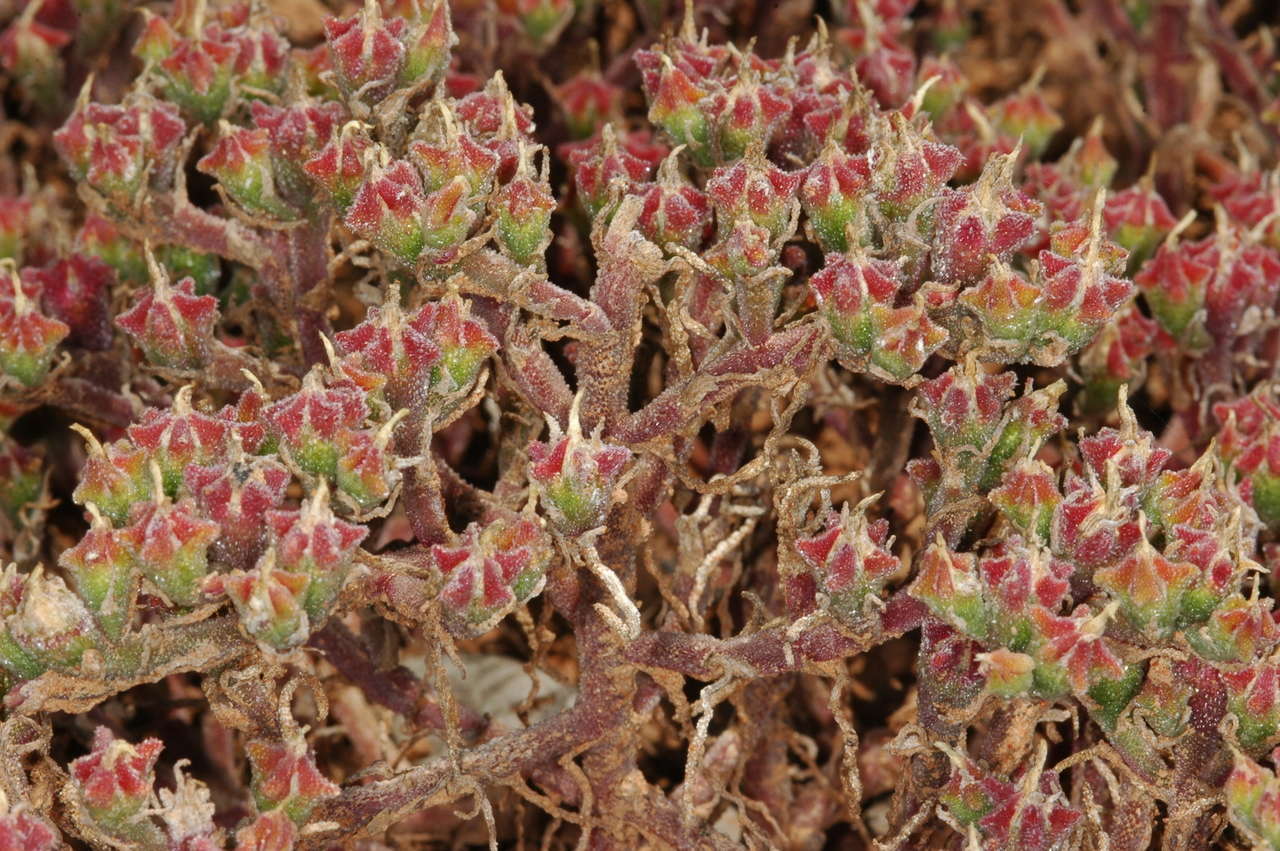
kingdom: Plantae
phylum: Tracheophyta
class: Magnoliopsida
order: Caryophyllales
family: Aizoaceae
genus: Mesembryanthemum
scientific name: Mesembryanthemum nodiflorum
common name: Slenderleaf iceplant
